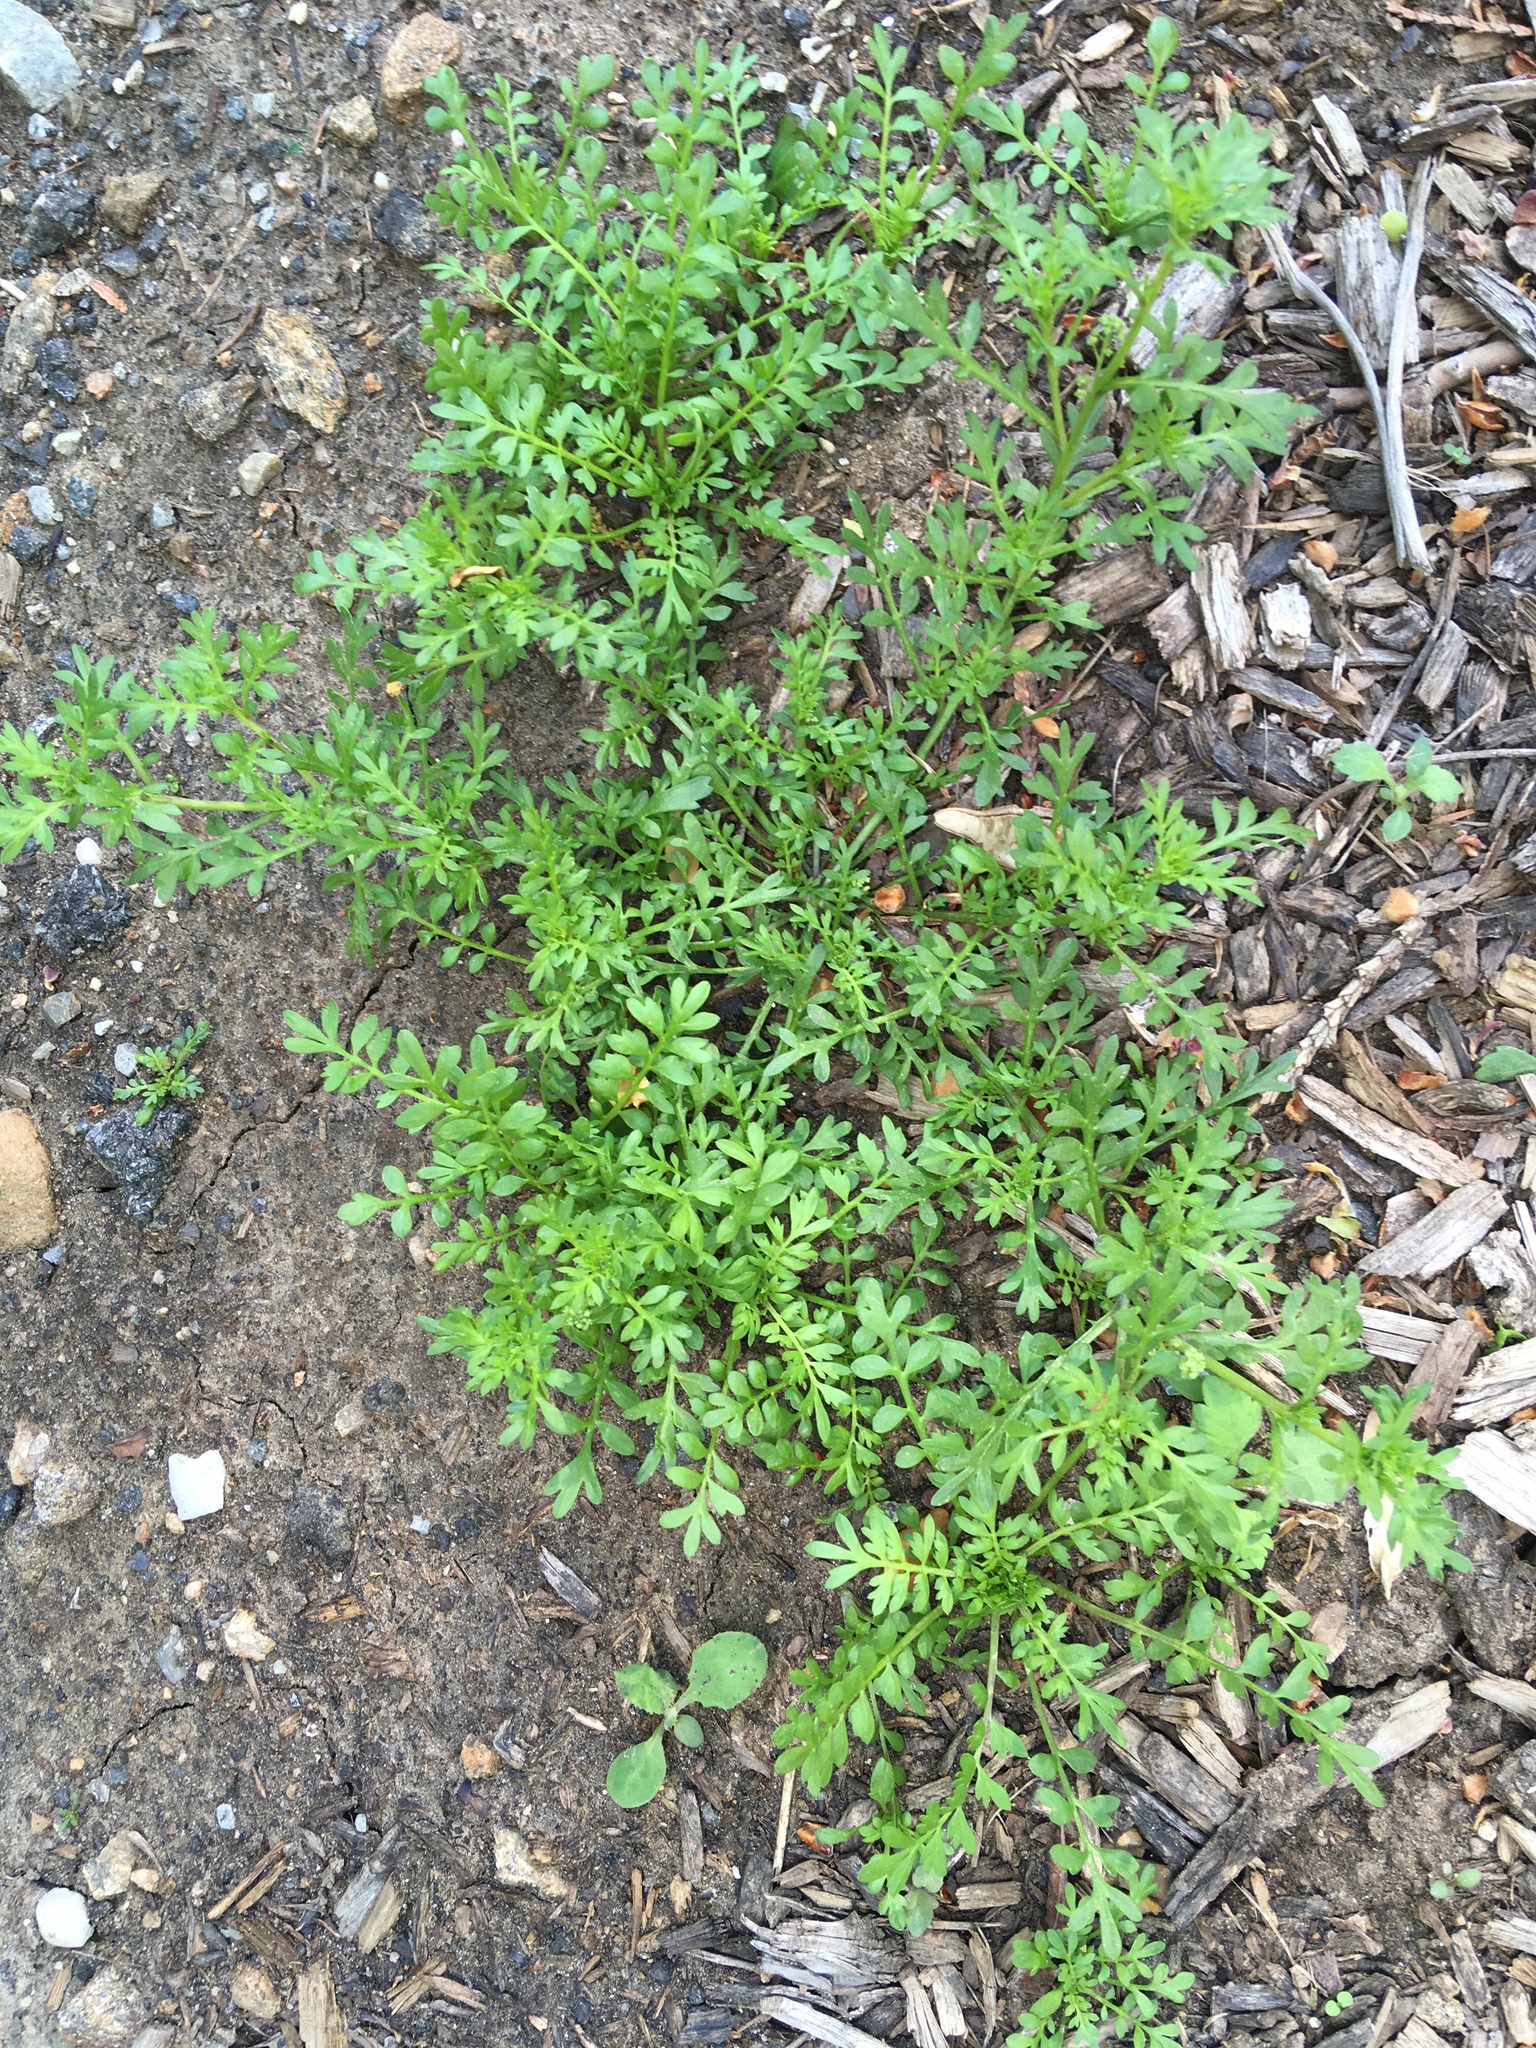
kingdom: Plantae
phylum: Tracheophyta
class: Magnoliopsida
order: Brassicales
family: Brassicaceae
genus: Lepidium
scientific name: Lepidium didymum
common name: Lesser swinecress
